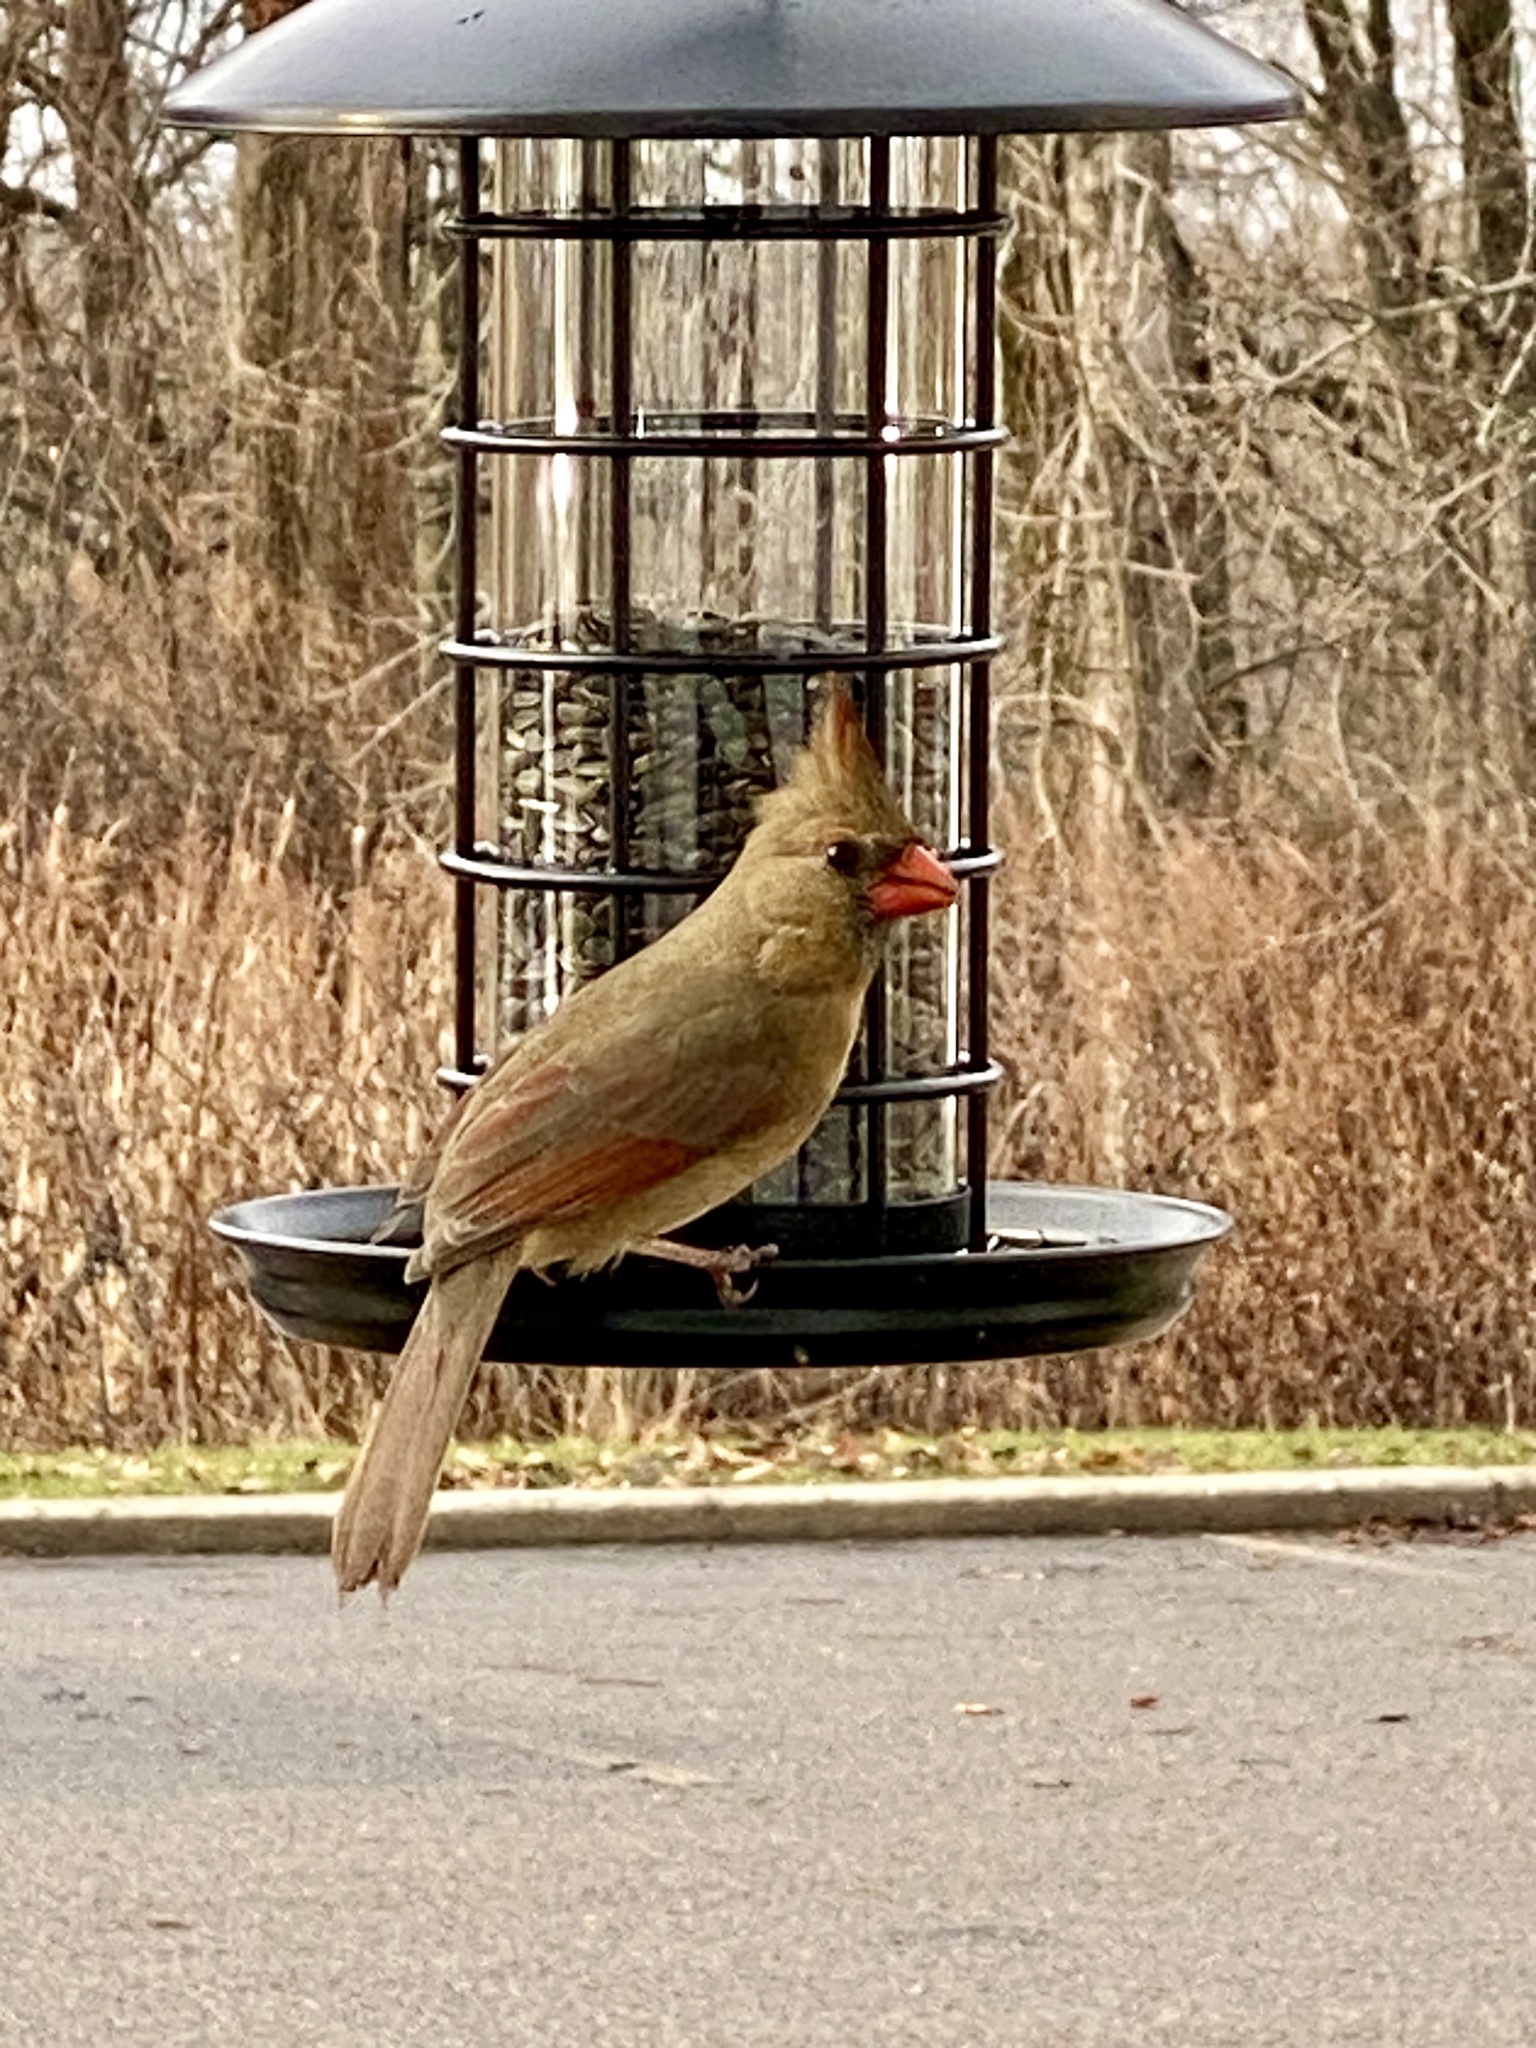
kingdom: Animalia
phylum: Chordata
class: Aves
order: Passeriformes
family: Cardinalidae
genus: Cardinalis
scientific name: Cardinalis cardinalis
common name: Northern cardinal
